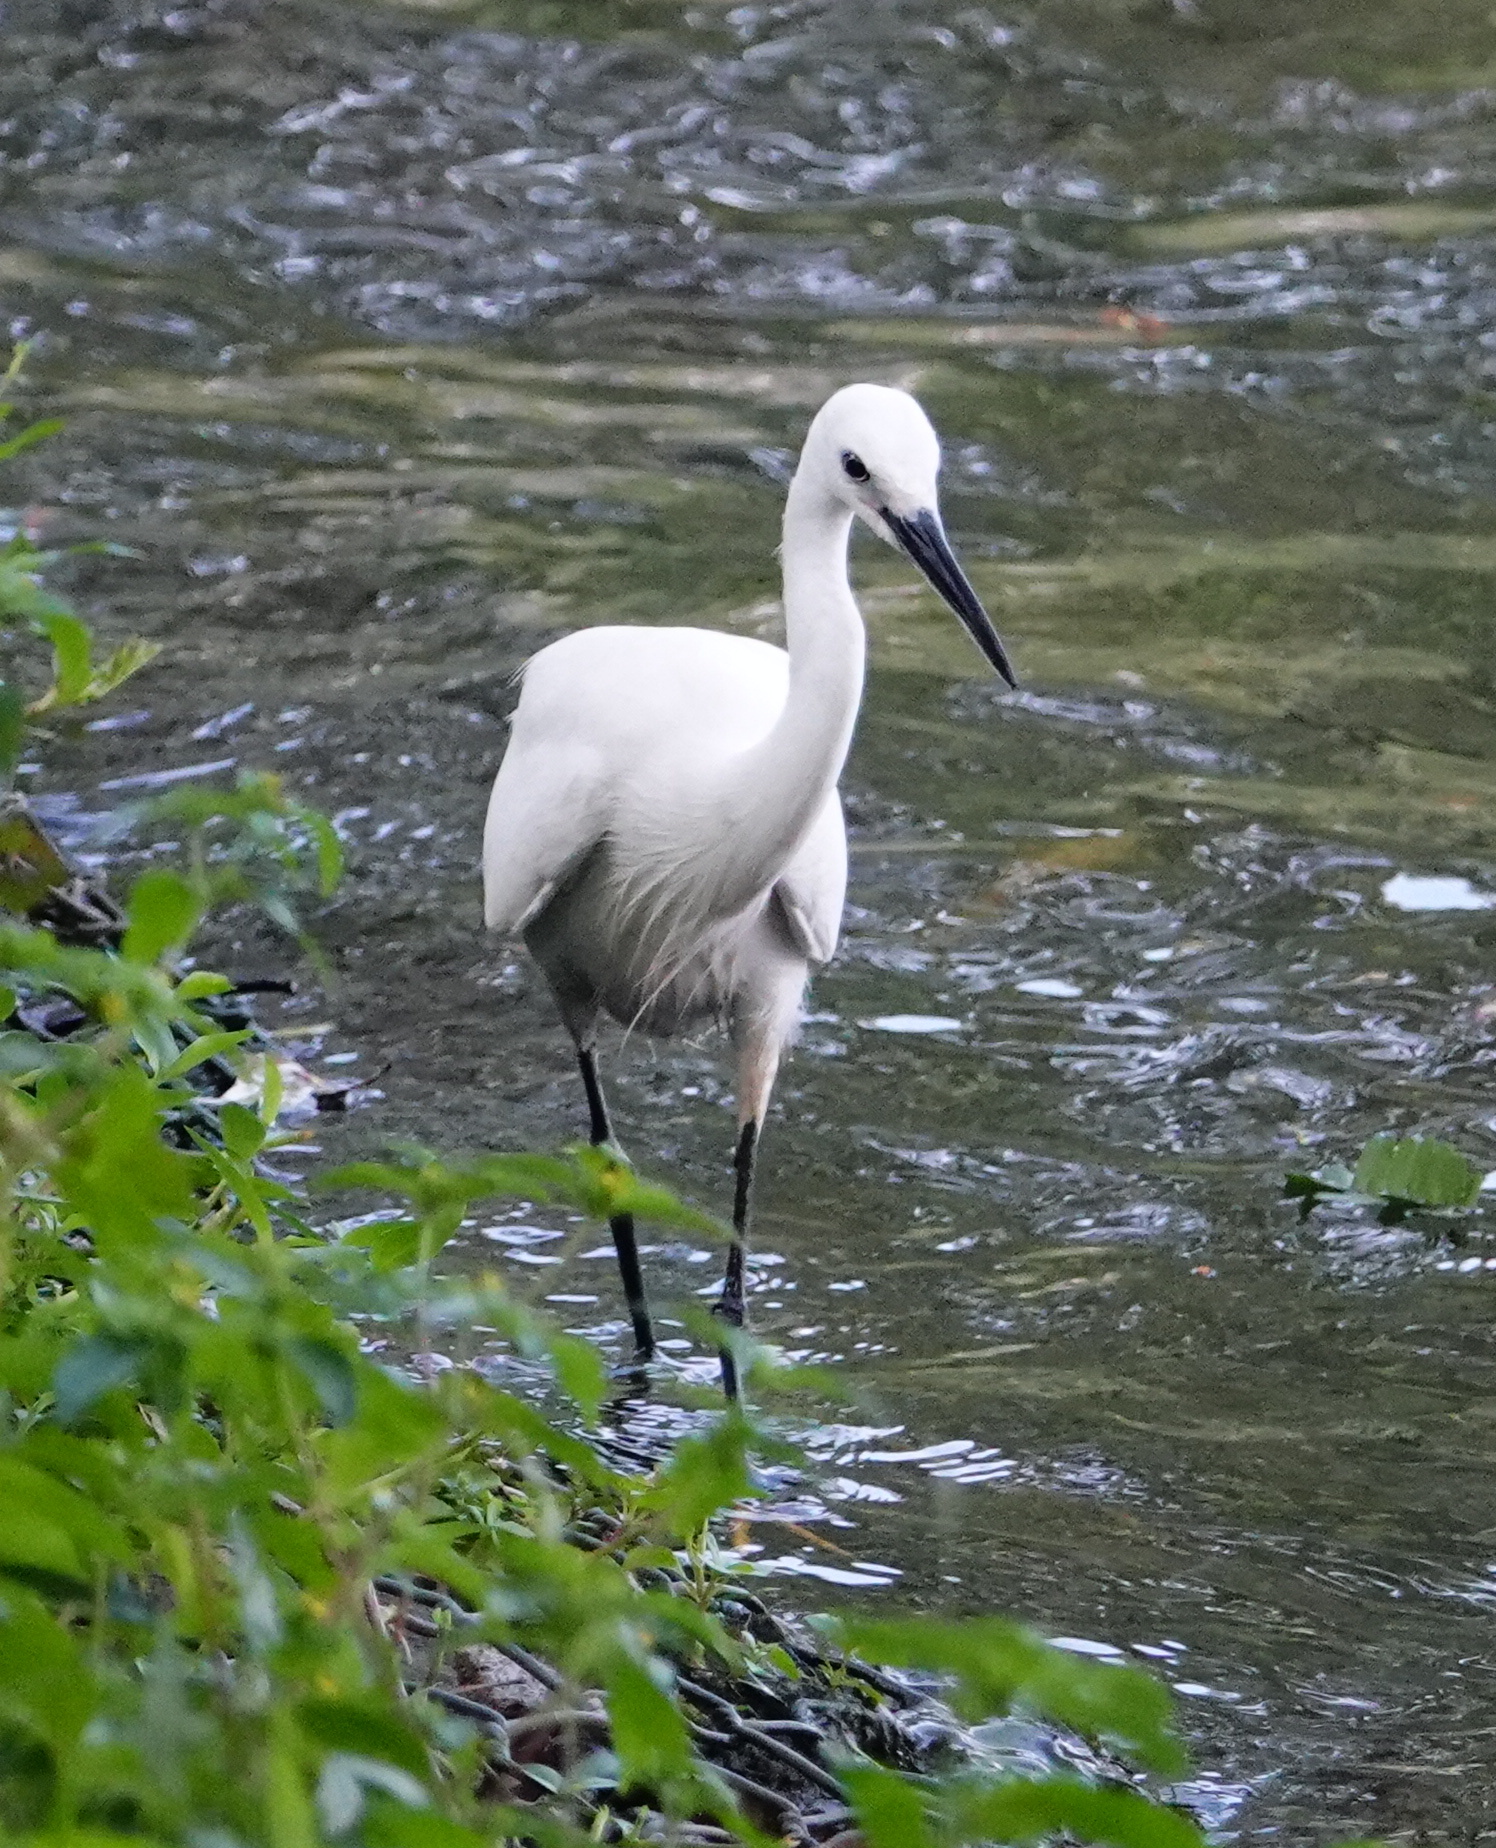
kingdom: Animalia
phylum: Chordata
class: Aves
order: Pelecaniformes
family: Ardeidae
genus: Egretta
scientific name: Egretta garzetta
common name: Little egret
